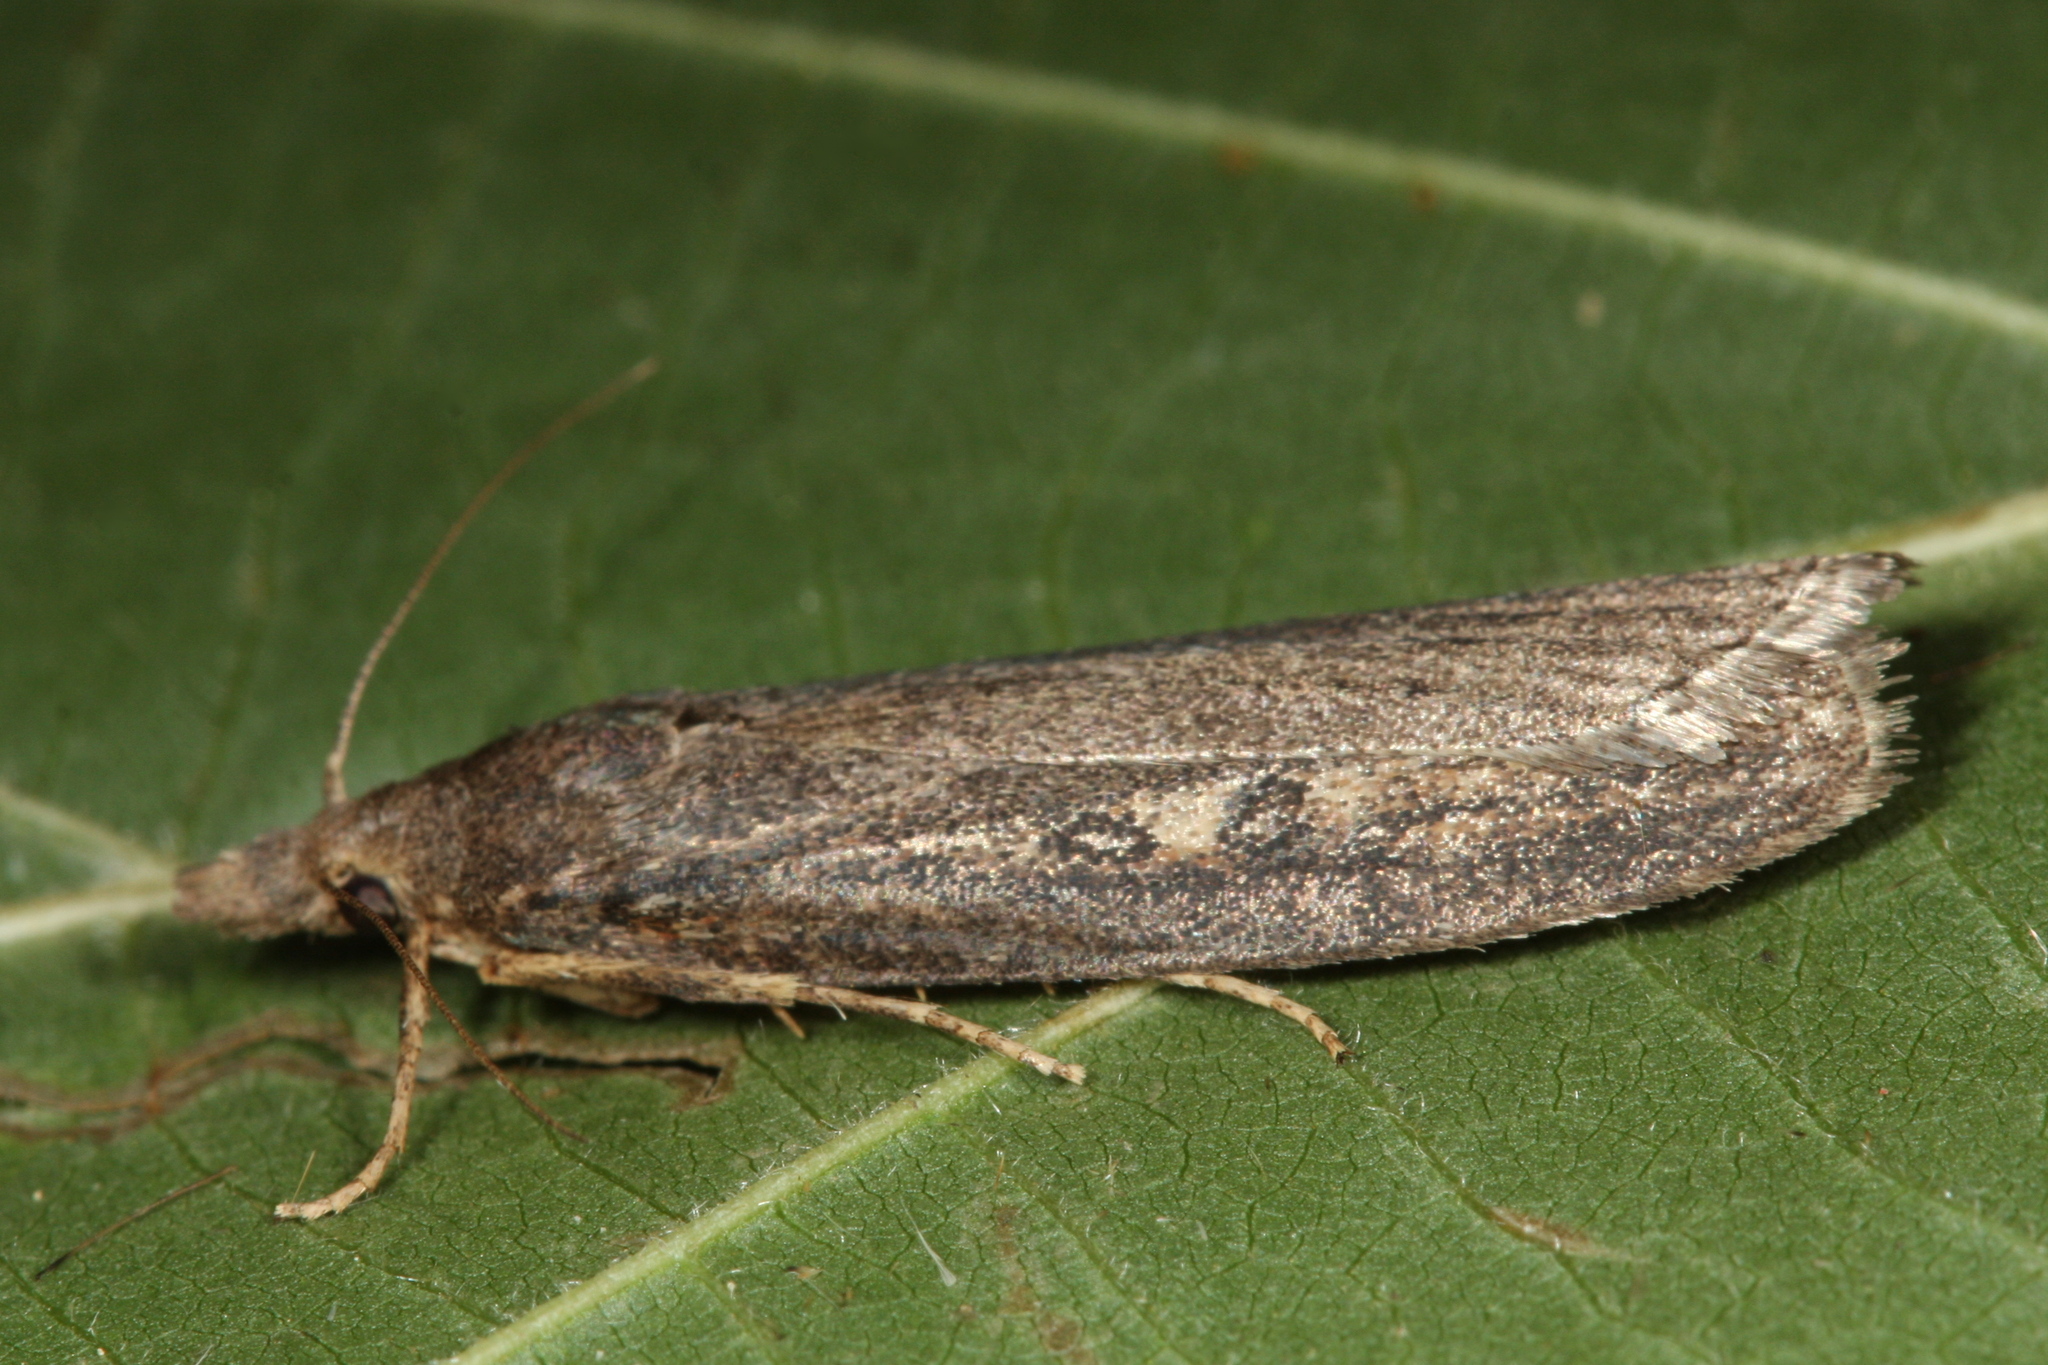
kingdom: Animalia
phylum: Arthropoda
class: Insecta
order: Lepidoptera
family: Pyralidae
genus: Aphomia
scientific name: Aphomia zelleri
